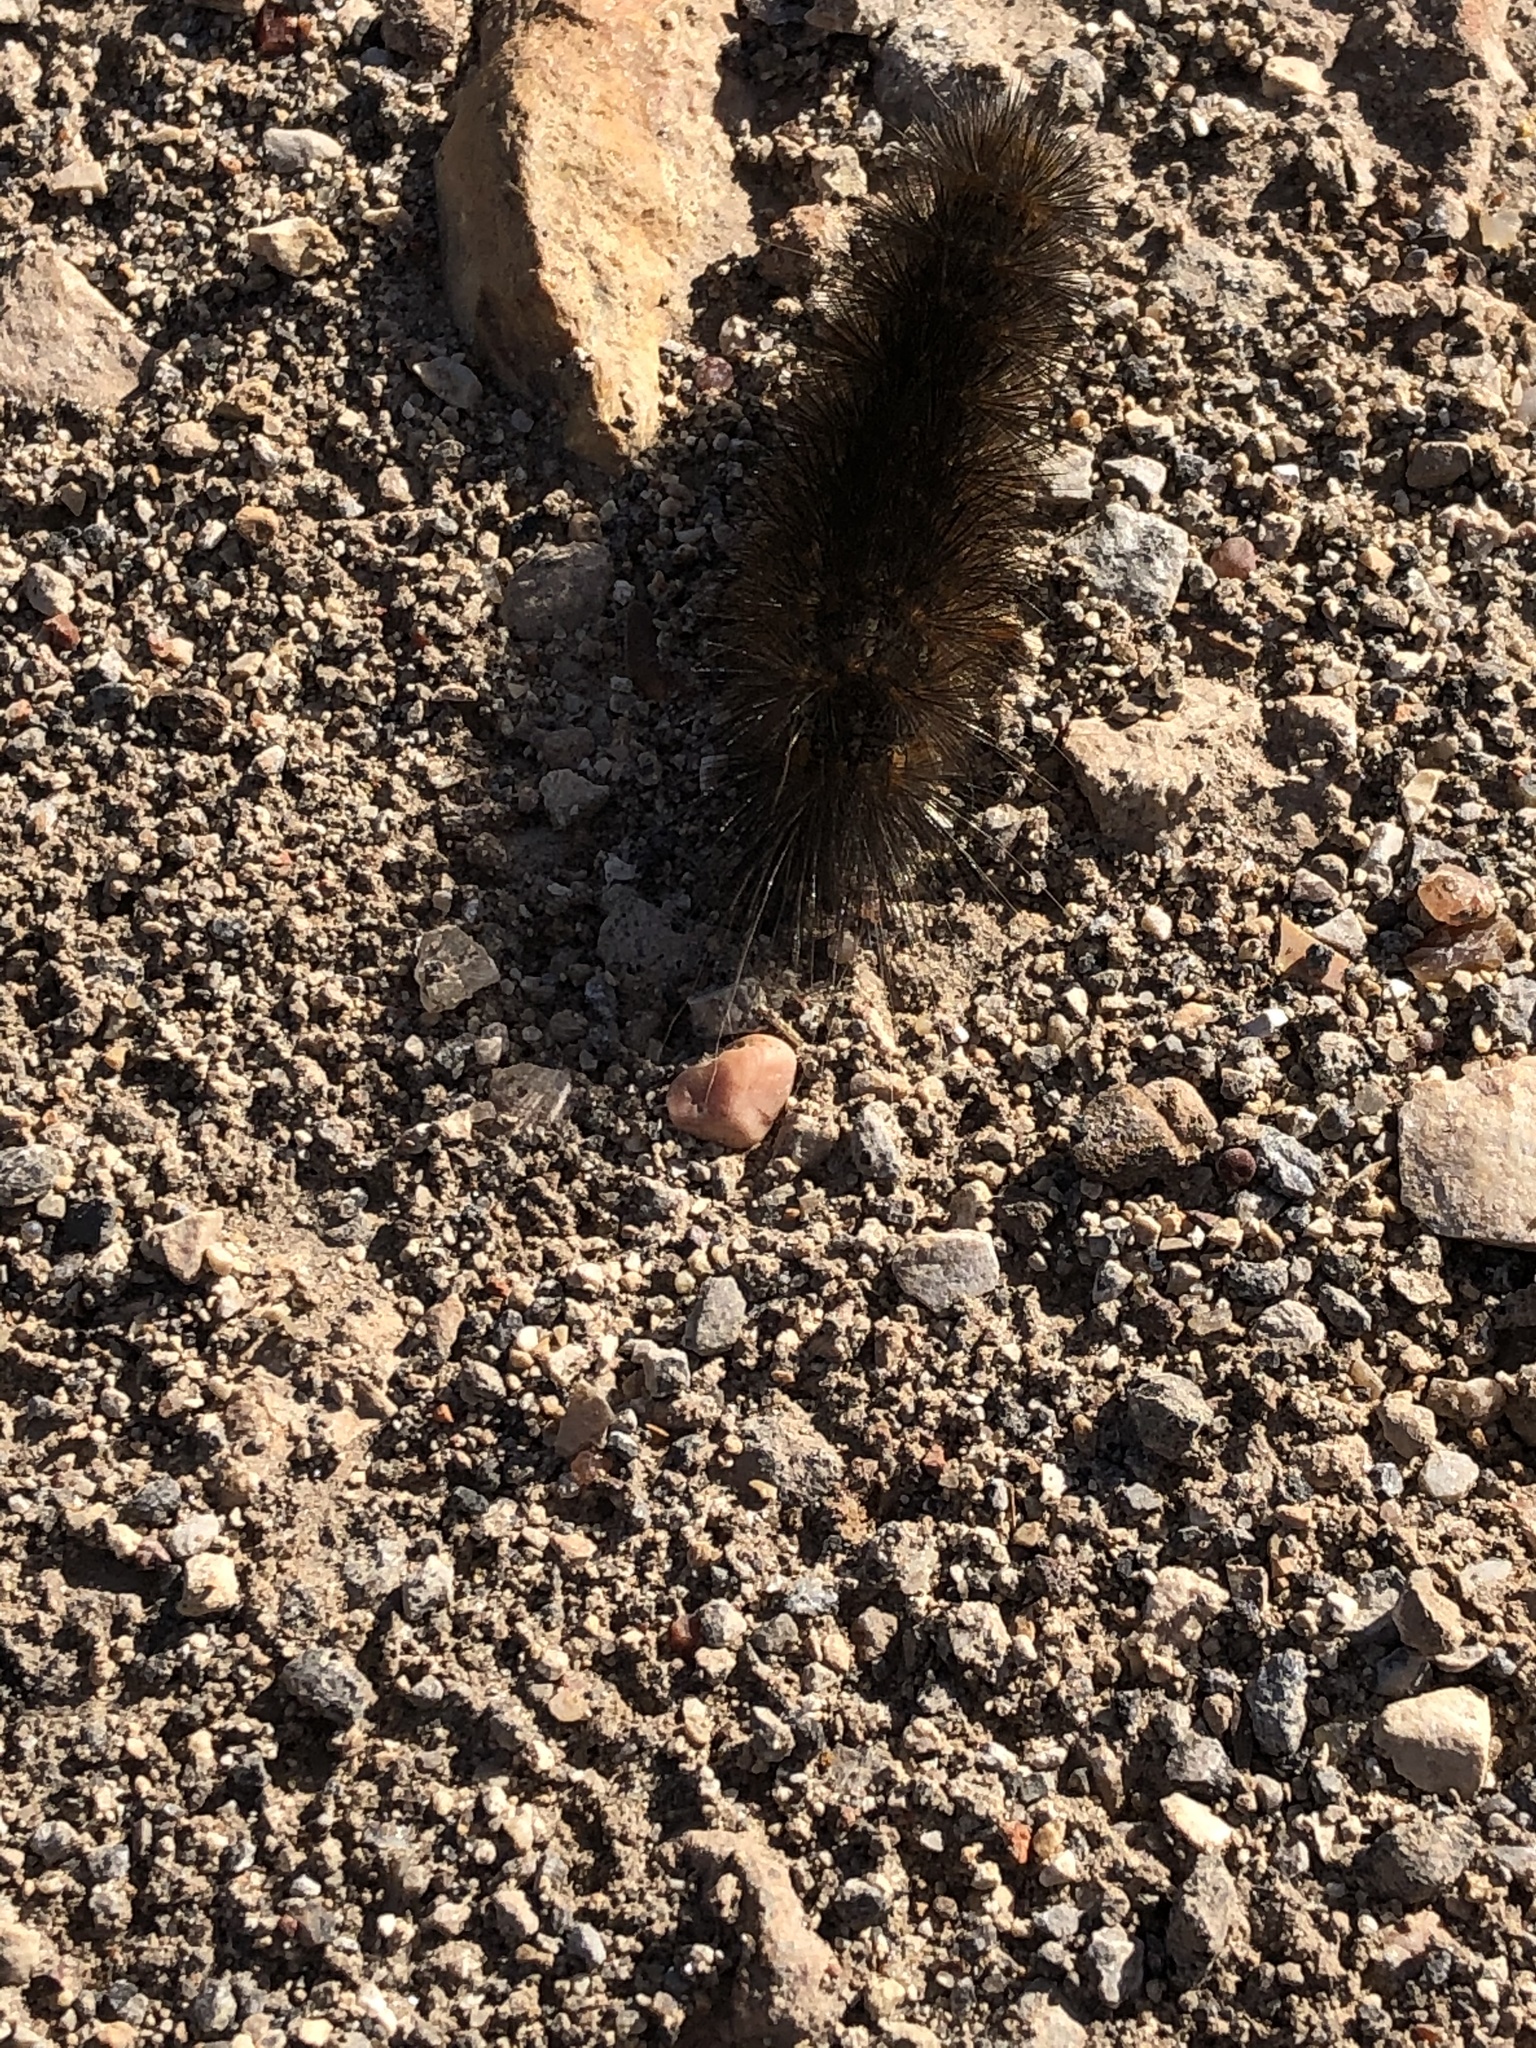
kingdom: Animalia
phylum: Arthropoda
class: Insecta
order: Lepidoptera
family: Erebidae
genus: Estigmene
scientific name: Estigmene acrea
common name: Salt marsh moth
